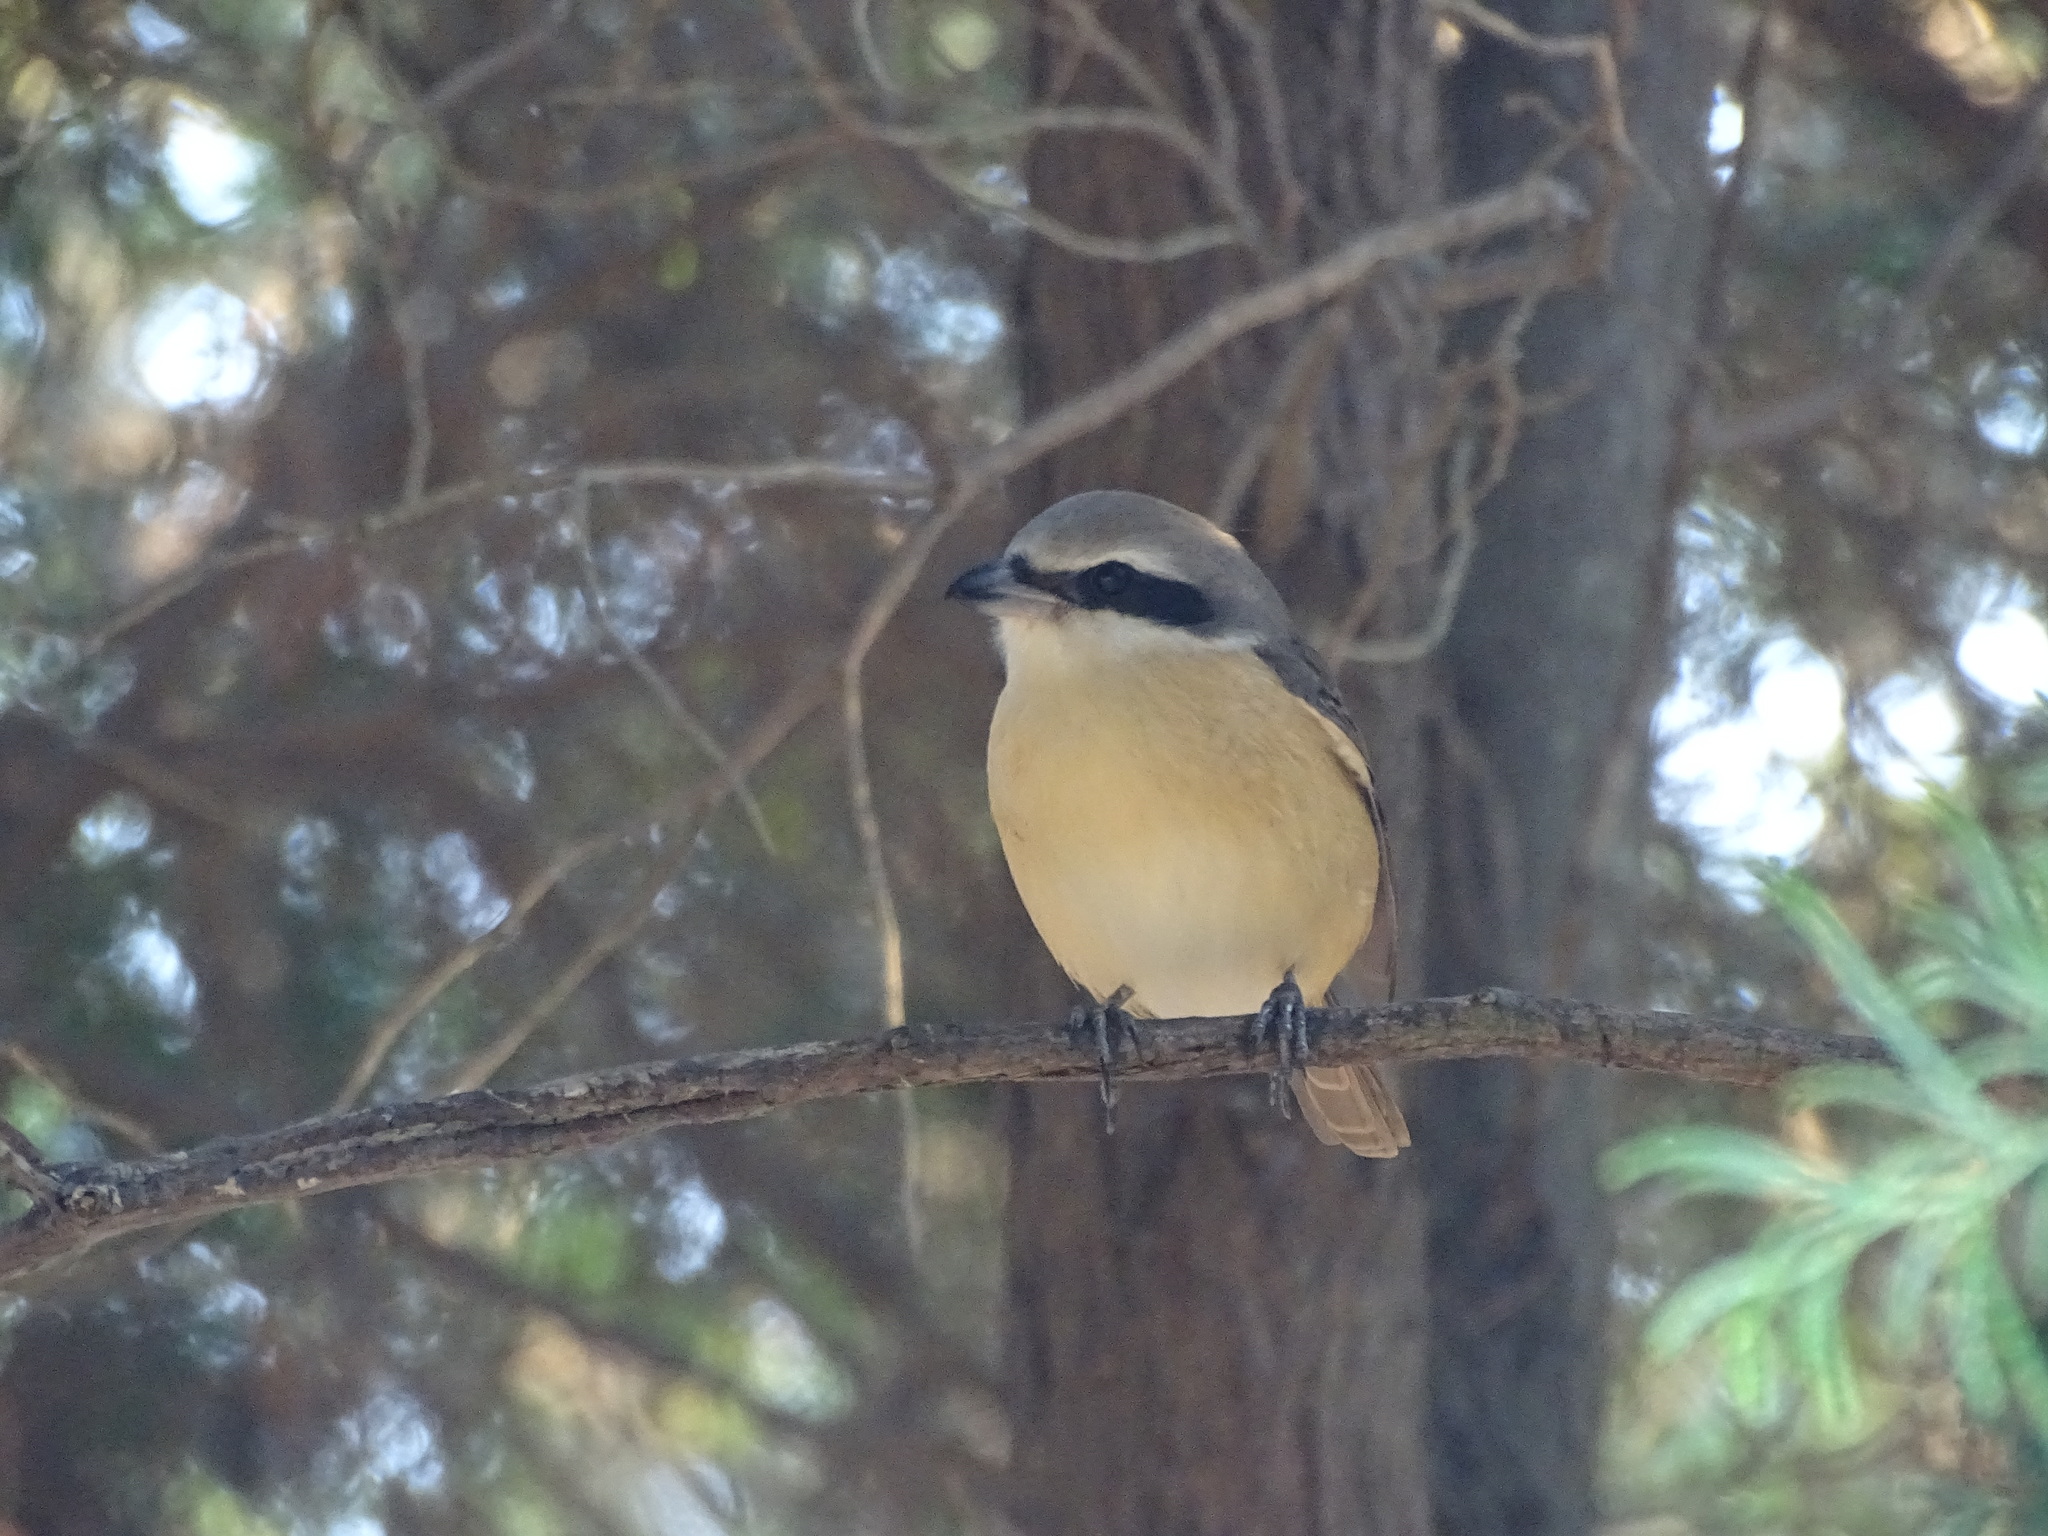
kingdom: Animalia
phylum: Chordata
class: Aves
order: Passeriformes
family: Laniidae
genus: Lanius
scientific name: Lanius cristatus
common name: Brown shrike
